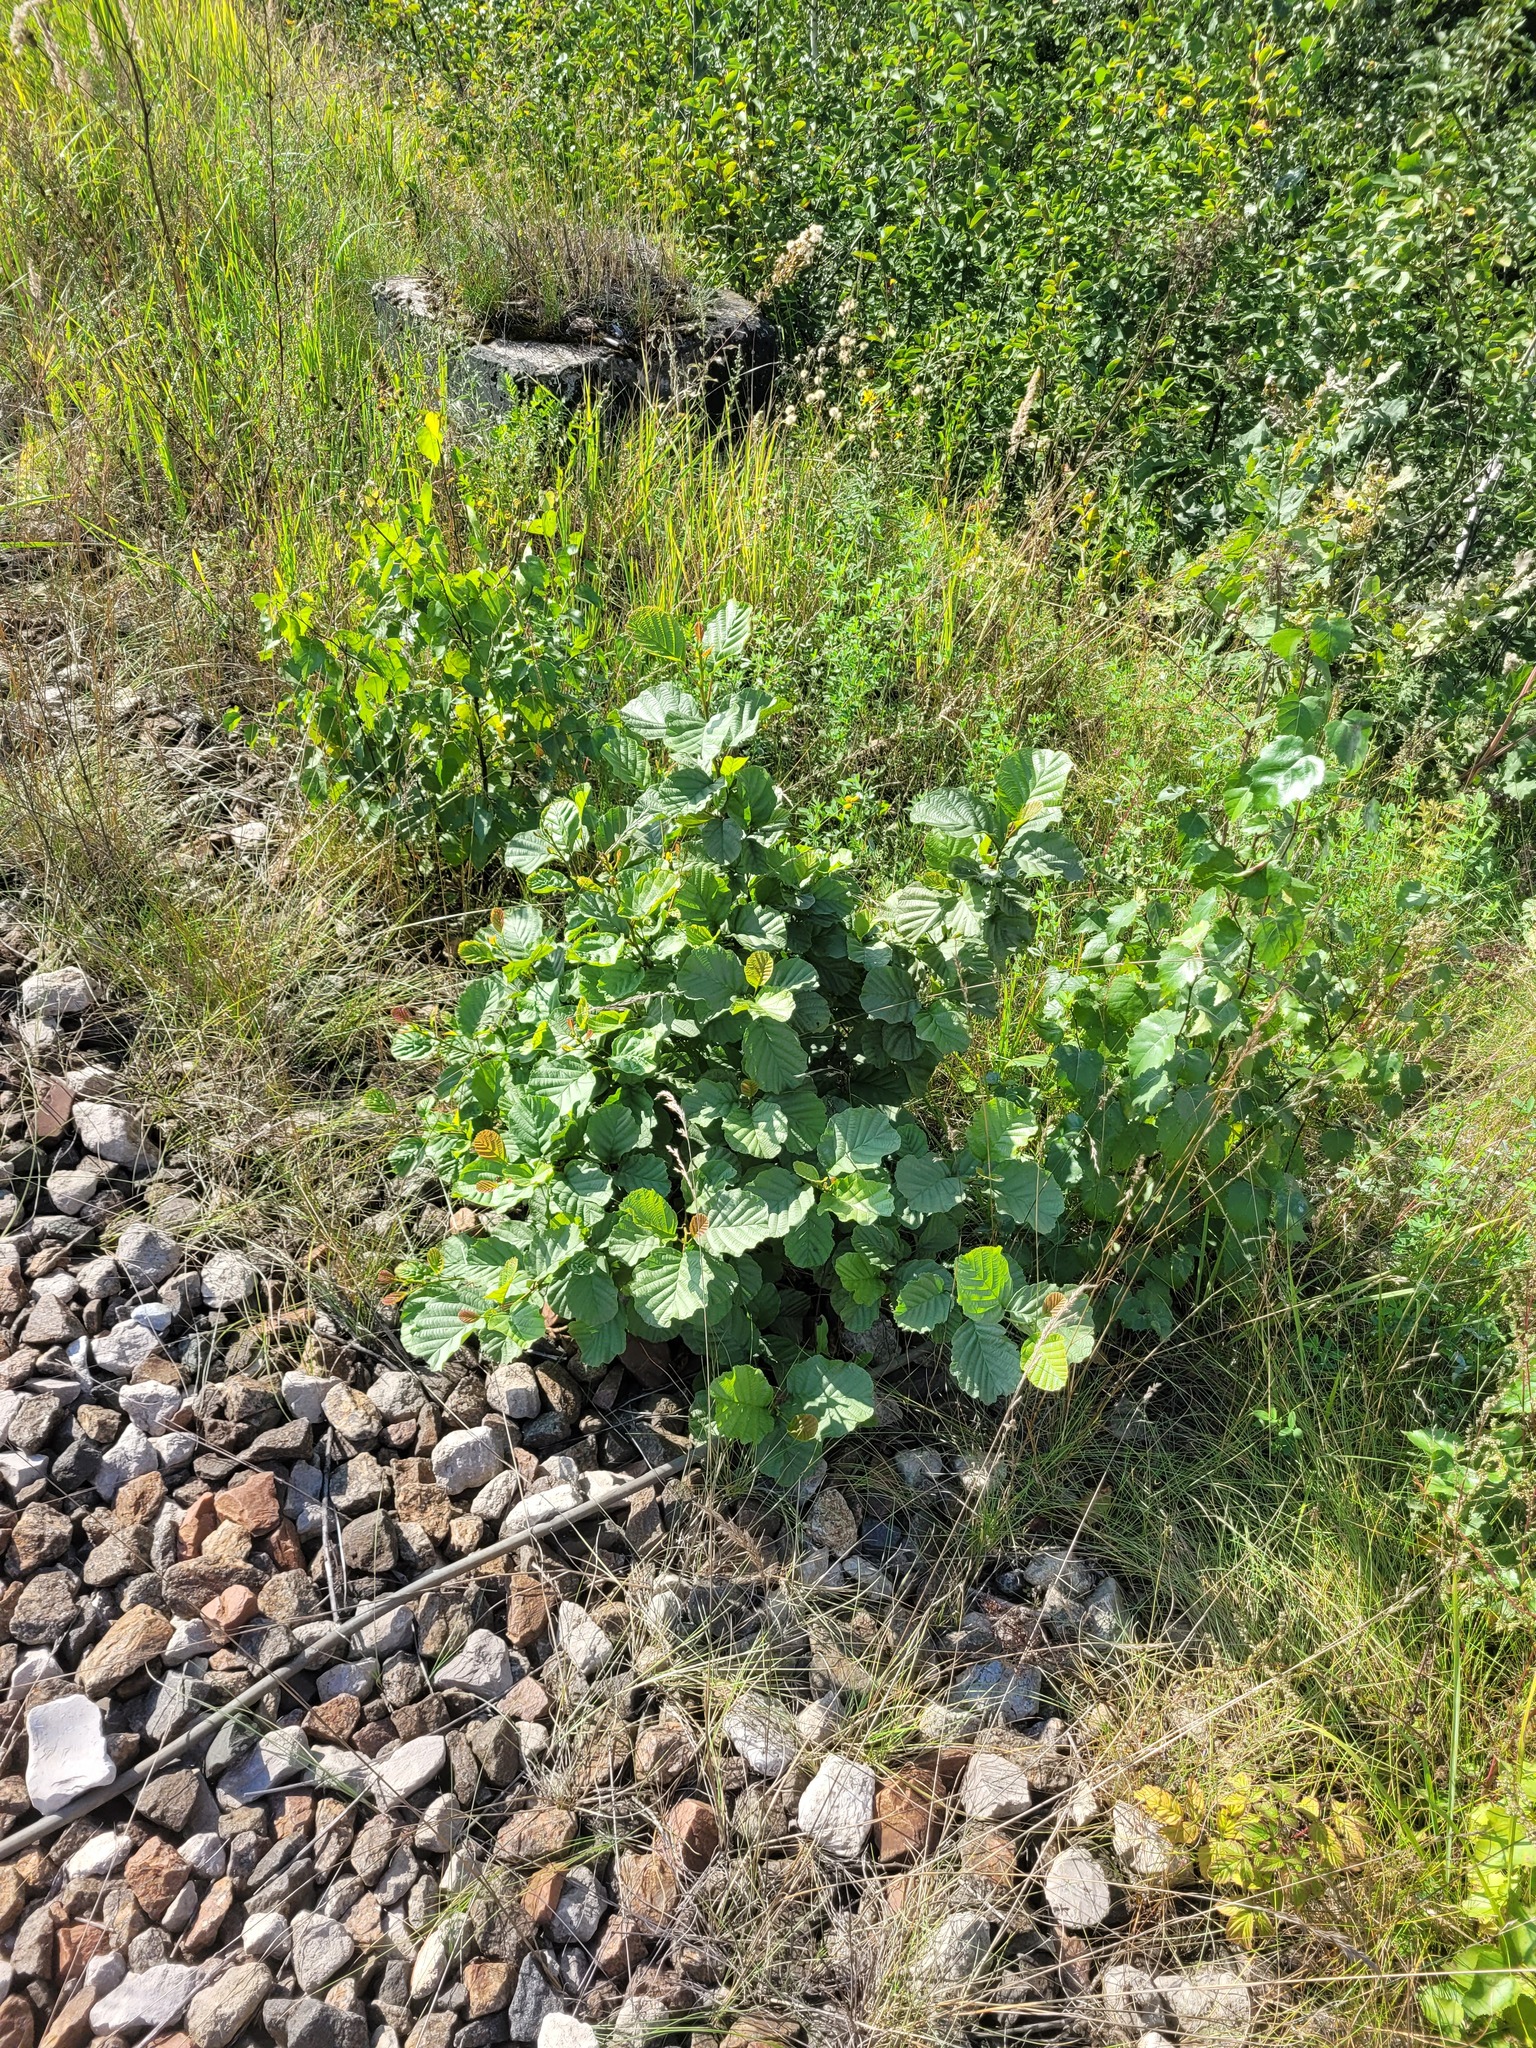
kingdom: Plantae
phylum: Tracheophyta
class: Magnoliopsida
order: Fagales
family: Betulaceae
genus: Alnus
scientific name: Alnus glutinosa
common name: Black alder
